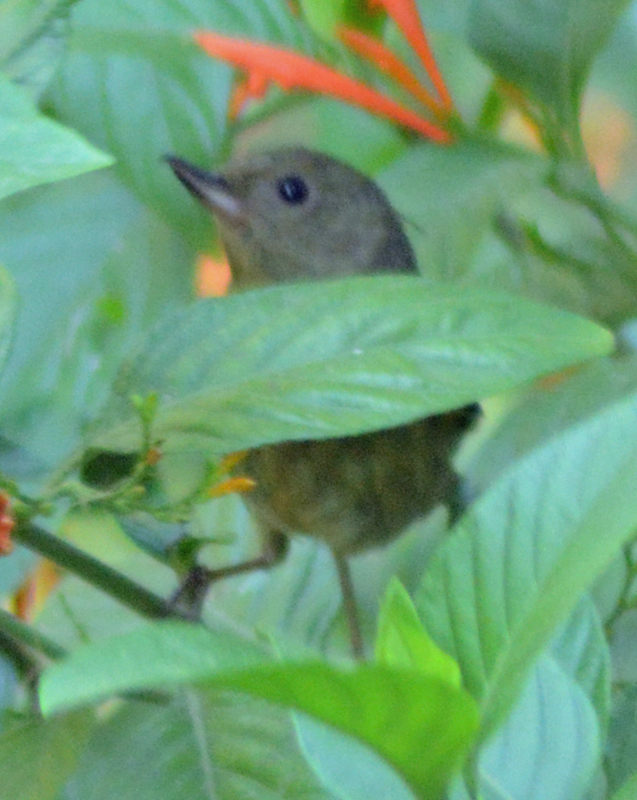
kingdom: Animalia
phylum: Chordata
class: Aves
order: Passeriformes
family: Thraupidae
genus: Diglossa
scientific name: Diglossa baritula
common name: Cinnamon-bellied flowerpiercer
